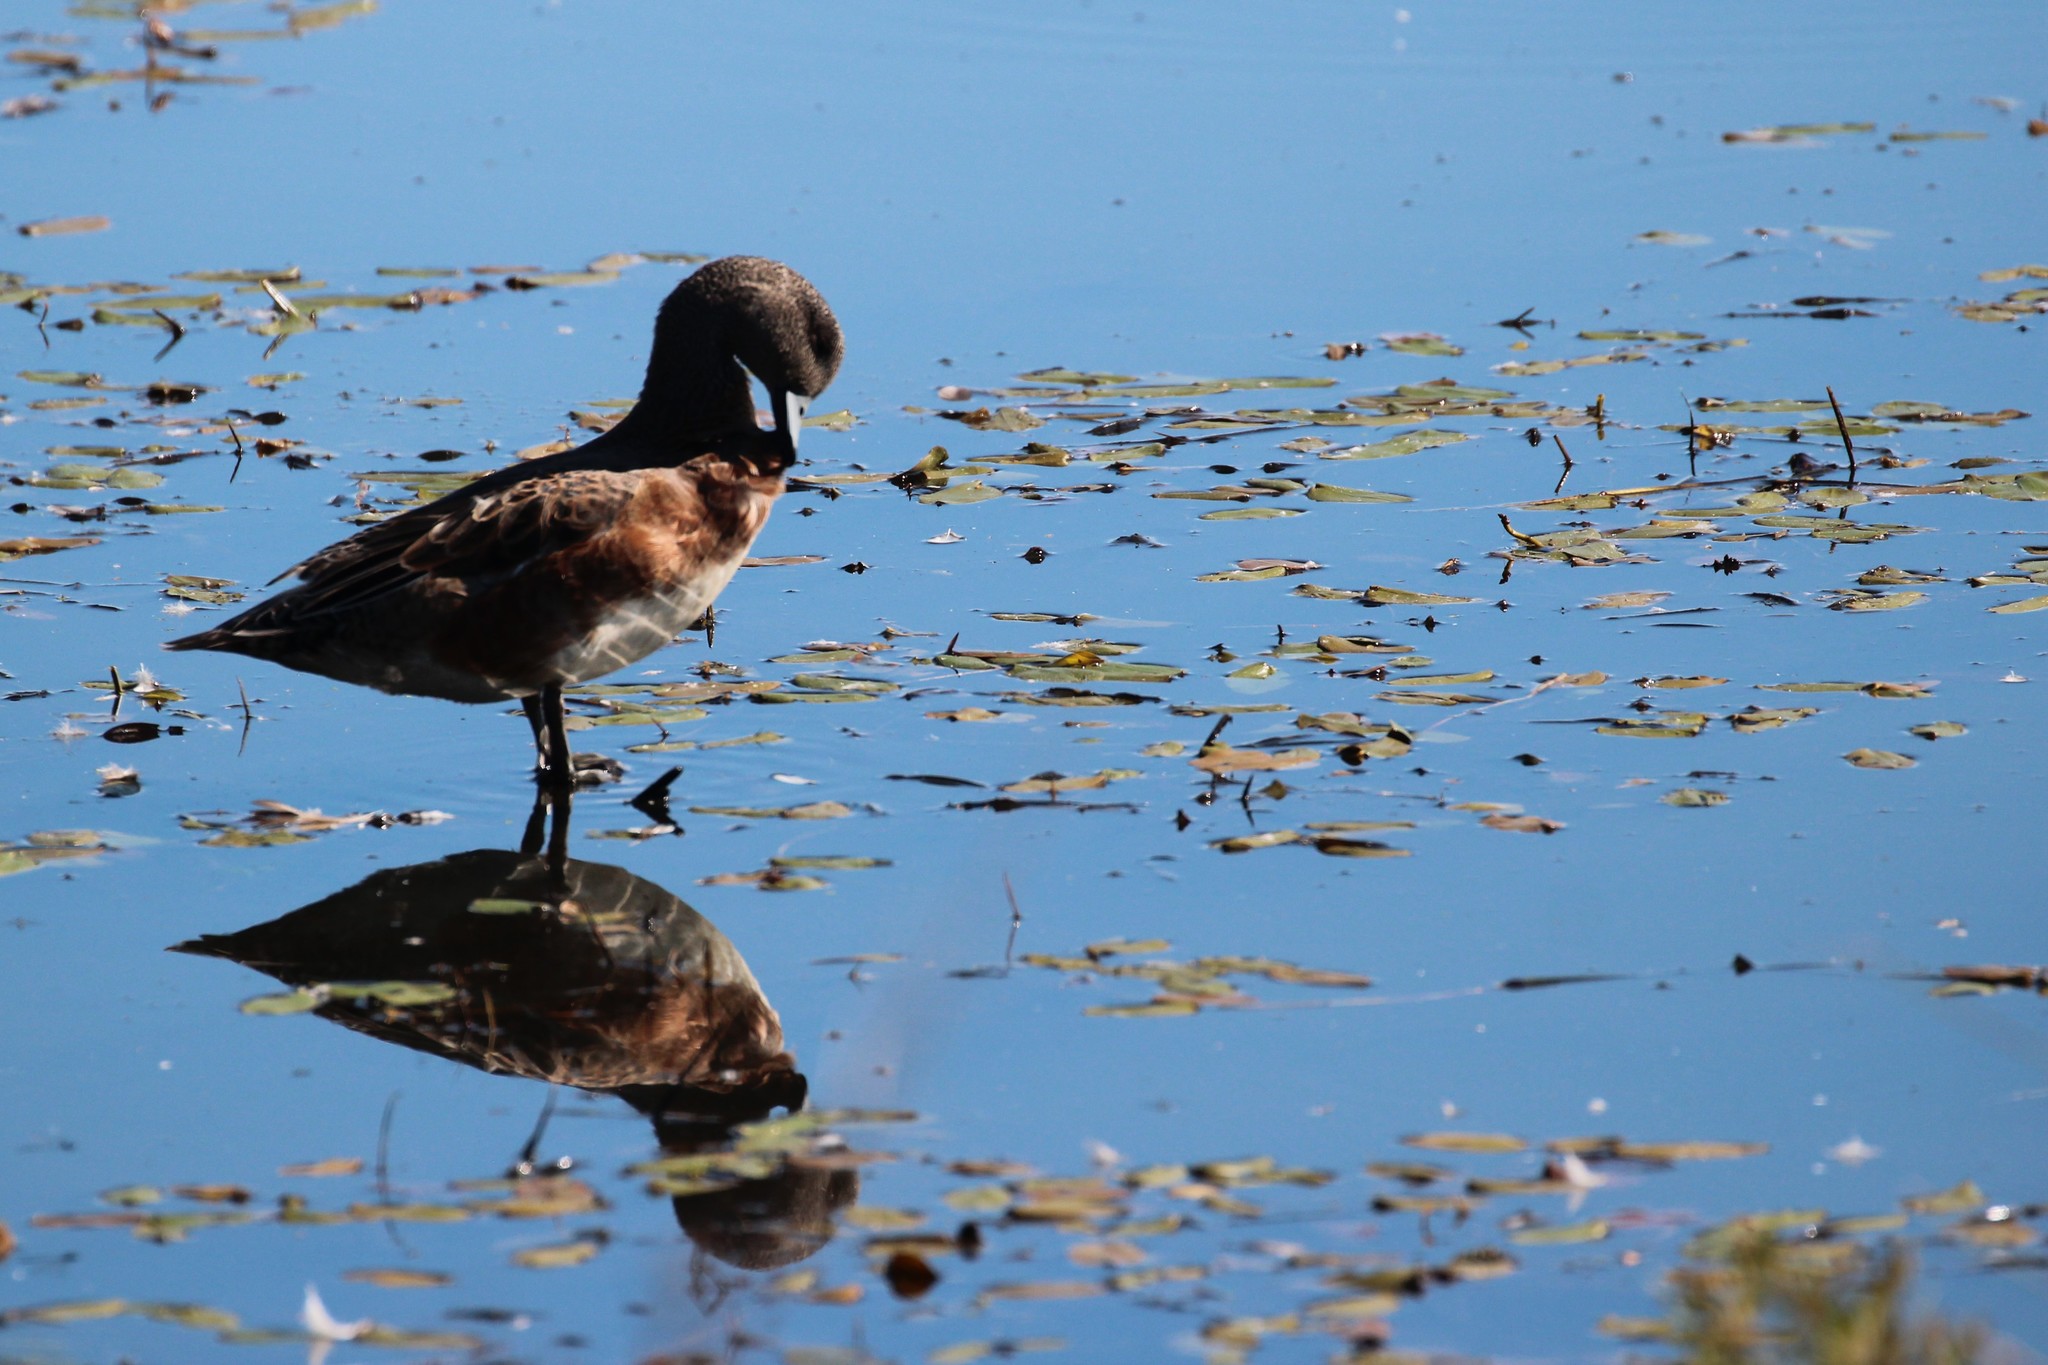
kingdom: Animalia
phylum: Chordata
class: Aves
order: Anseriformes
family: Anatidae
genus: Mareca
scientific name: Mareca americana
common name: American wigeon
